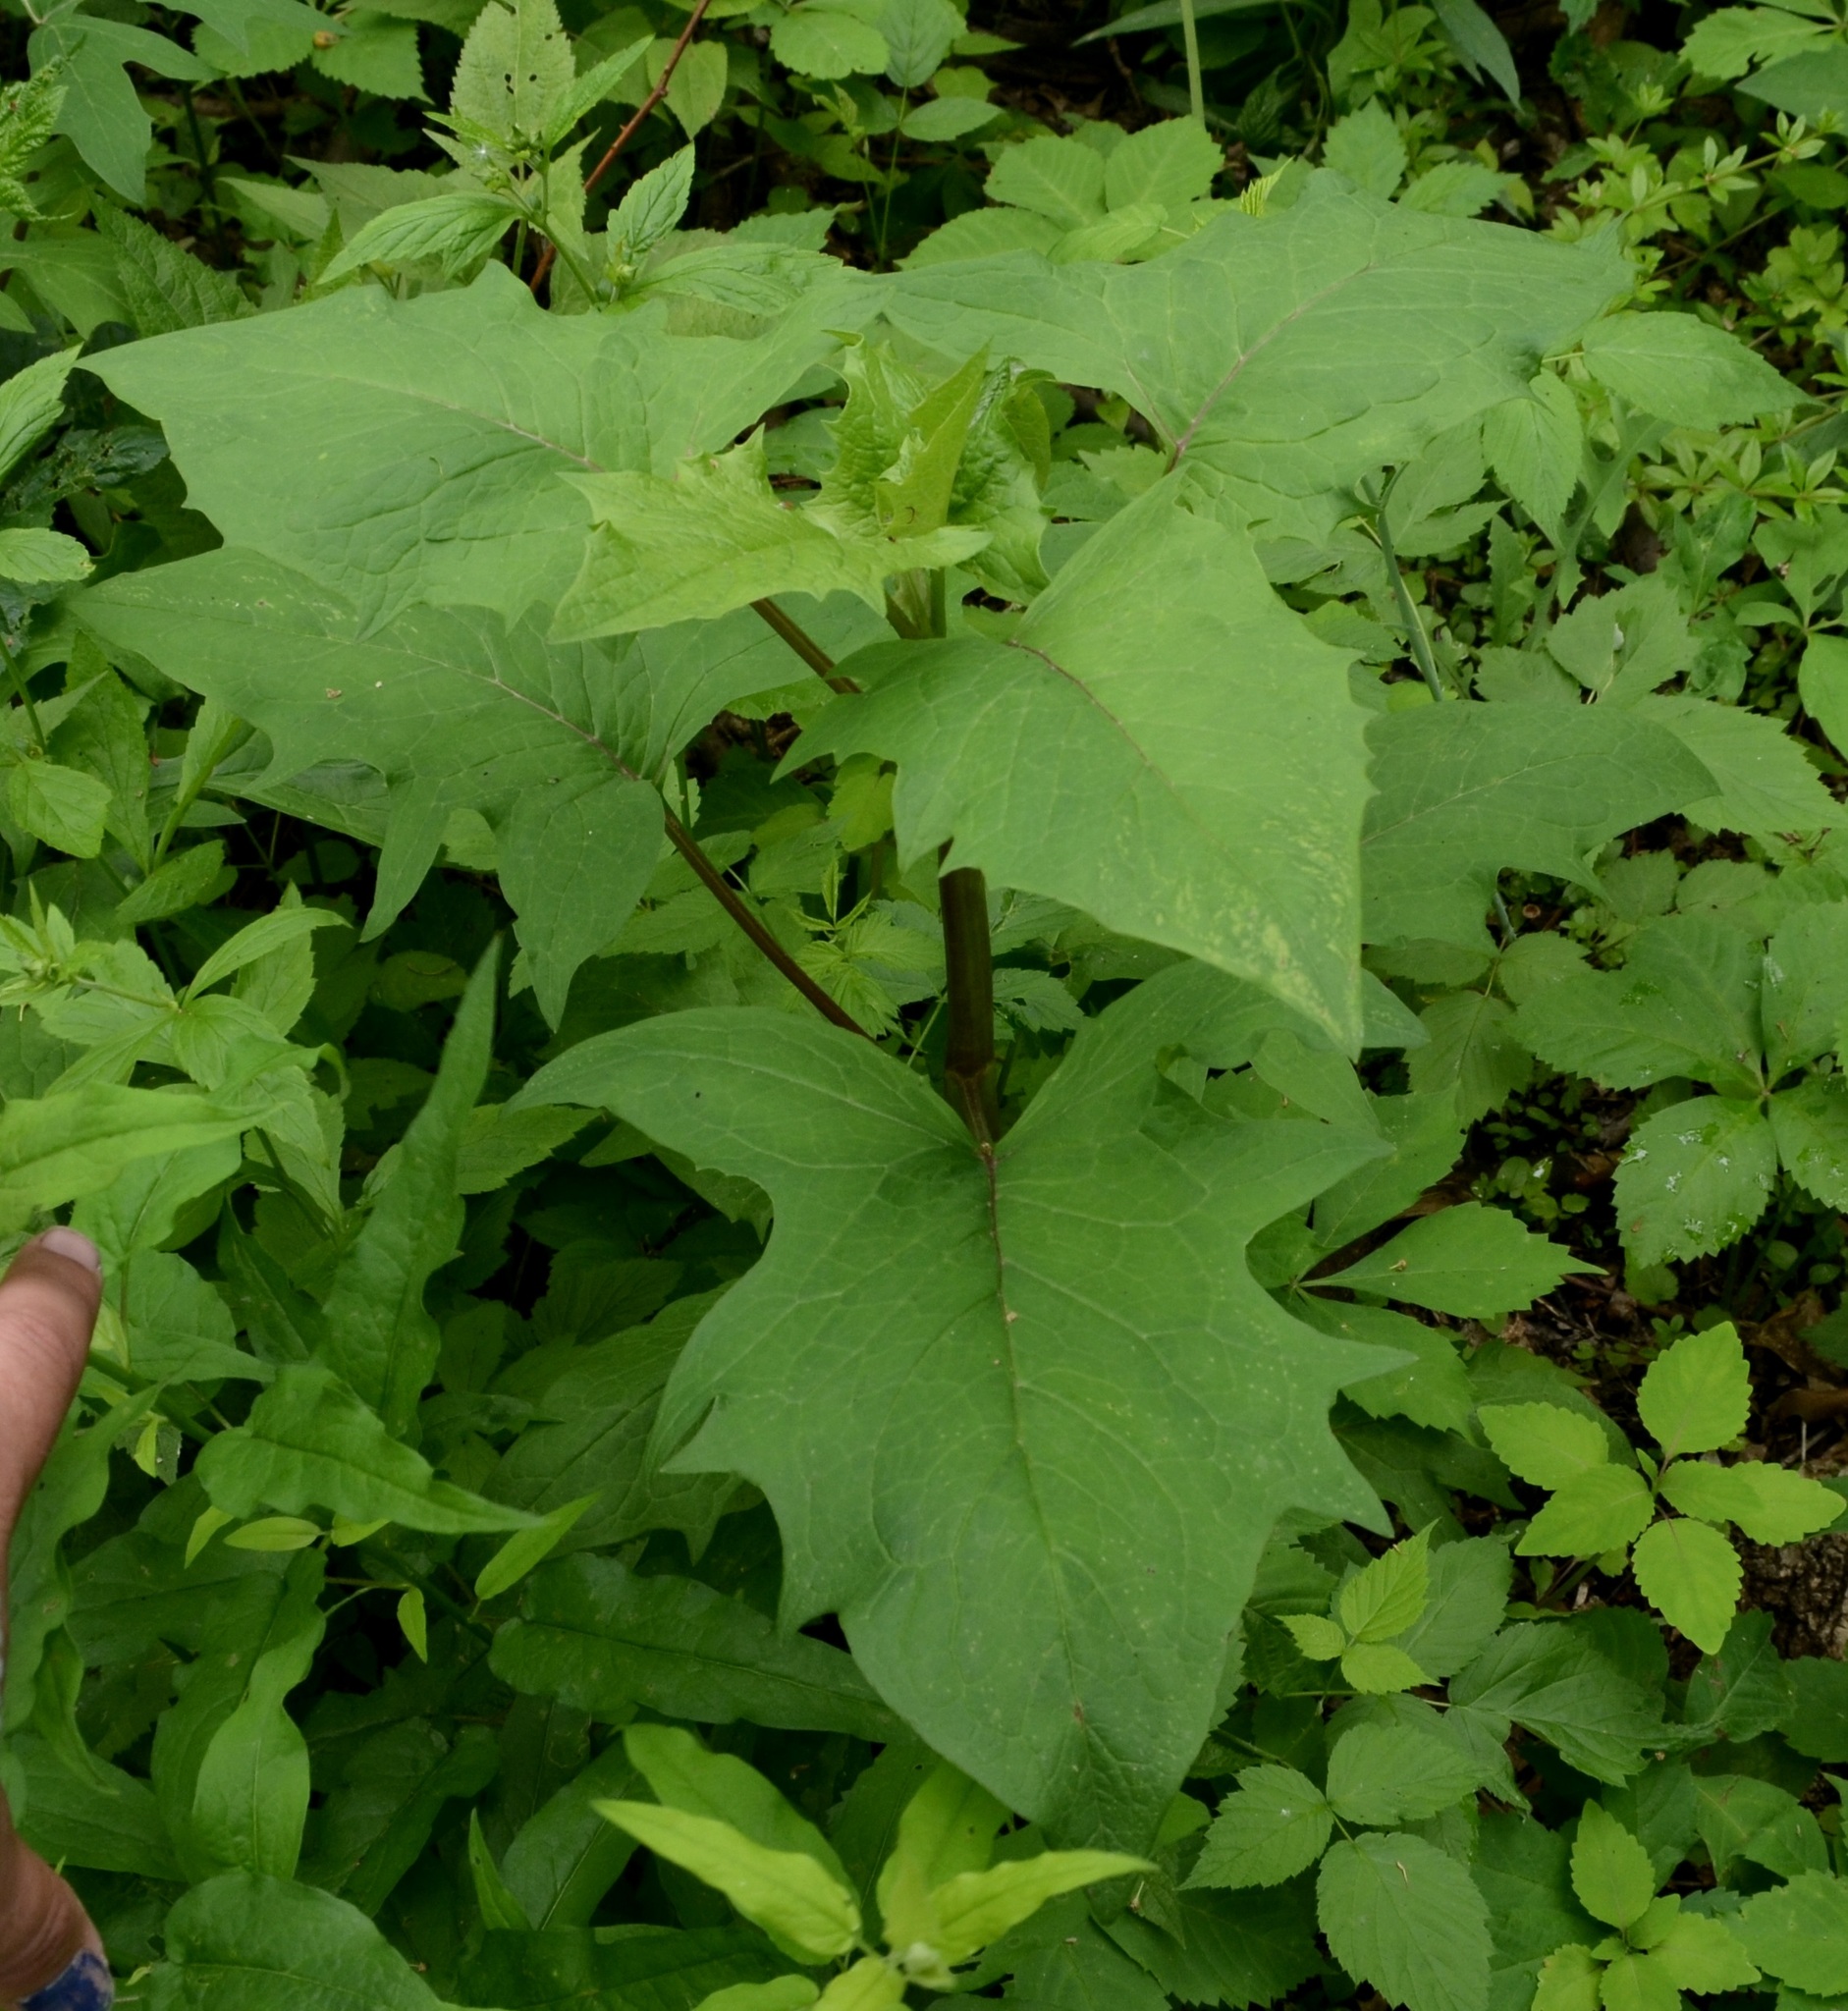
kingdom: Plantae
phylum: Tracheophyta
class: Magnoliopsida
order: Asterales
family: Asteraceae
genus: Nabalus
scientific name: Nabalus albus
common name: White rattlesnakeroot
